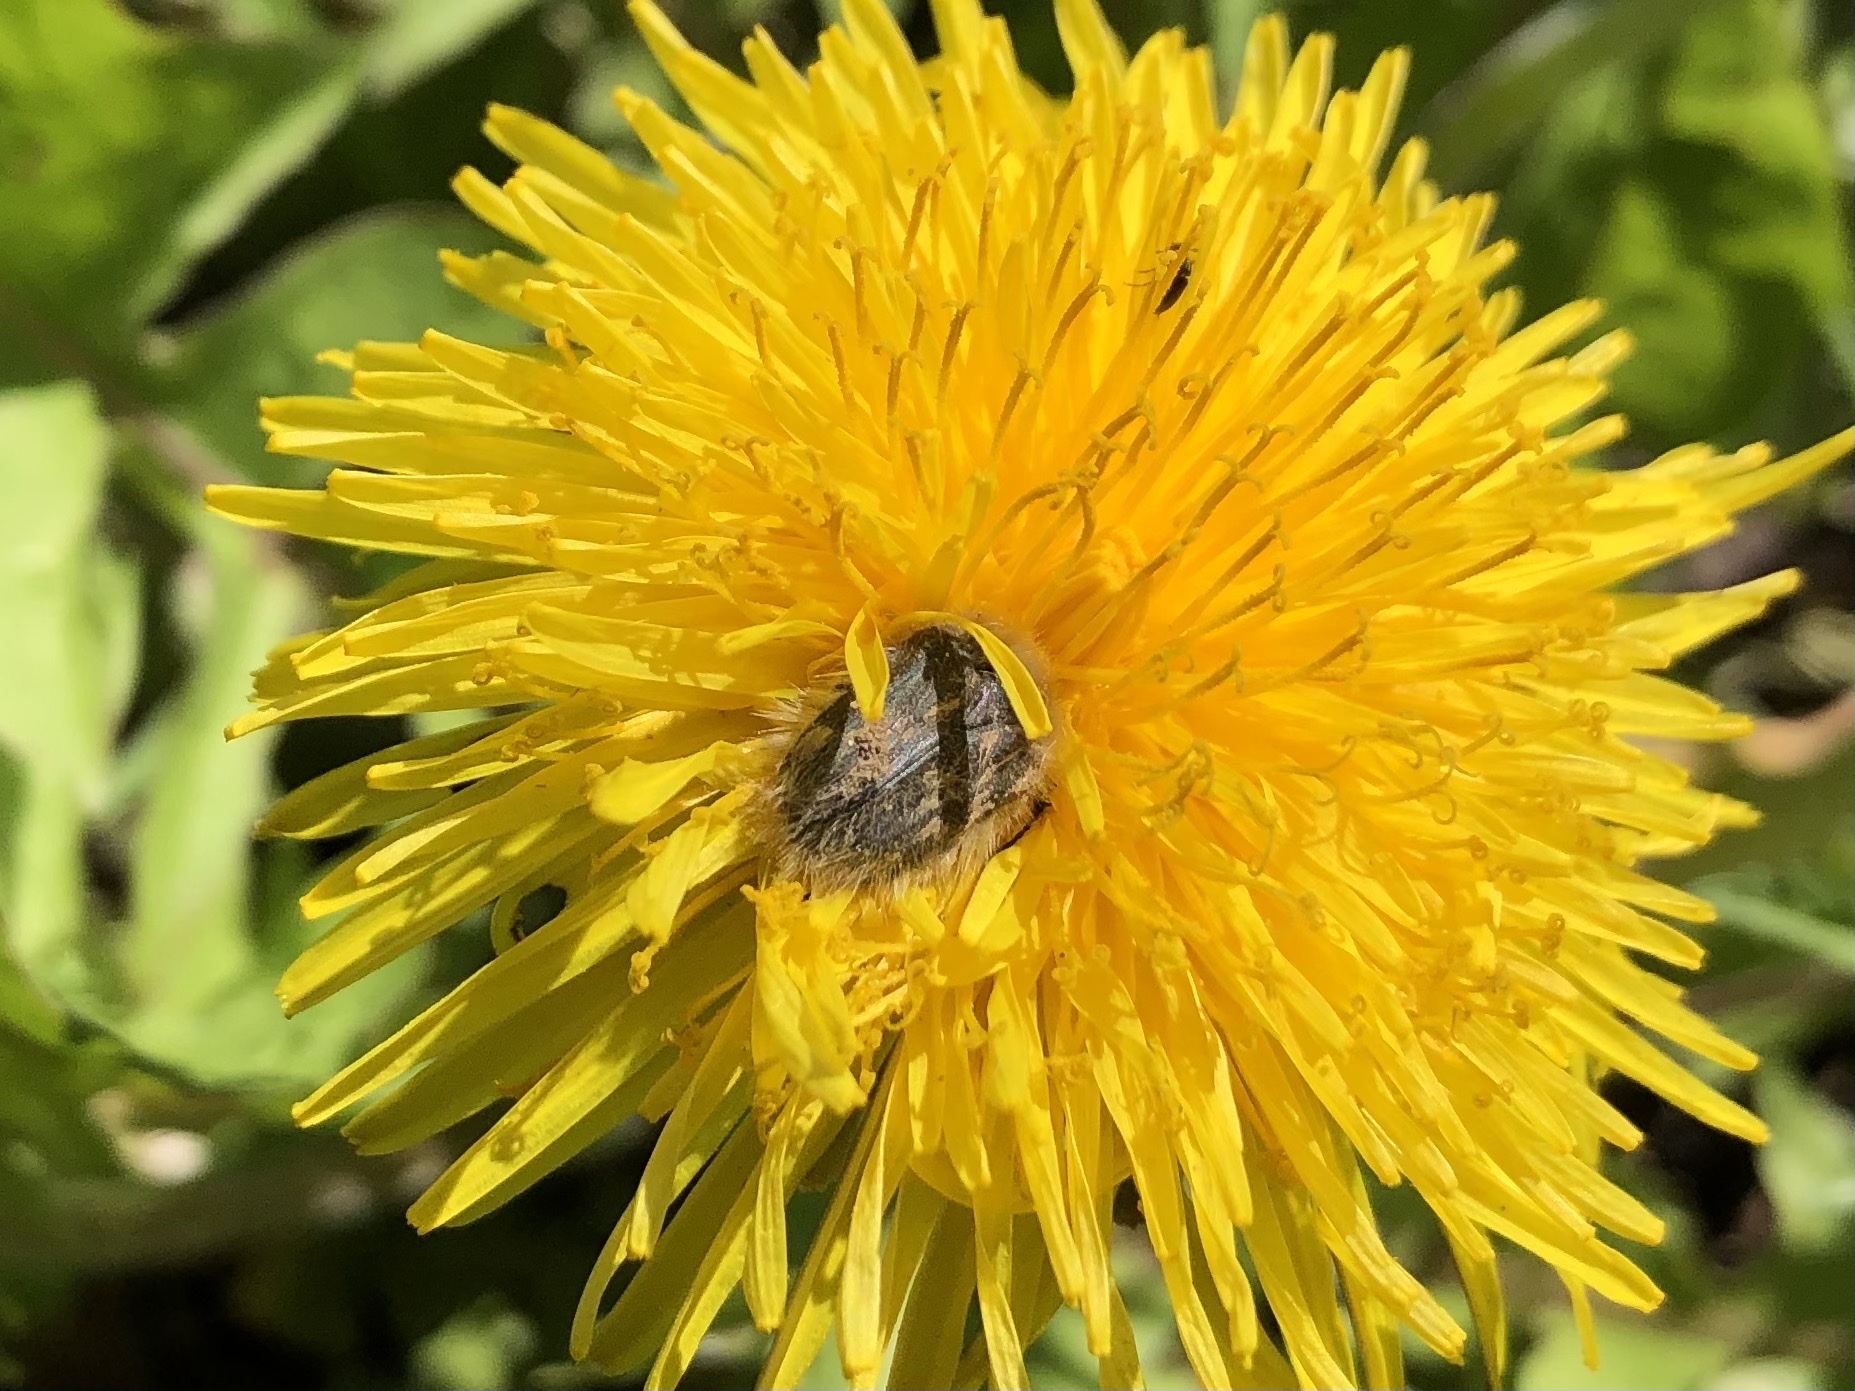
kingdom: Animalia
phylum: Arthropoda
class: Insecta
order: Coleoptera
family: Scarabaeidae
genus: Tropinota
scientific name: Tropinota hirta
